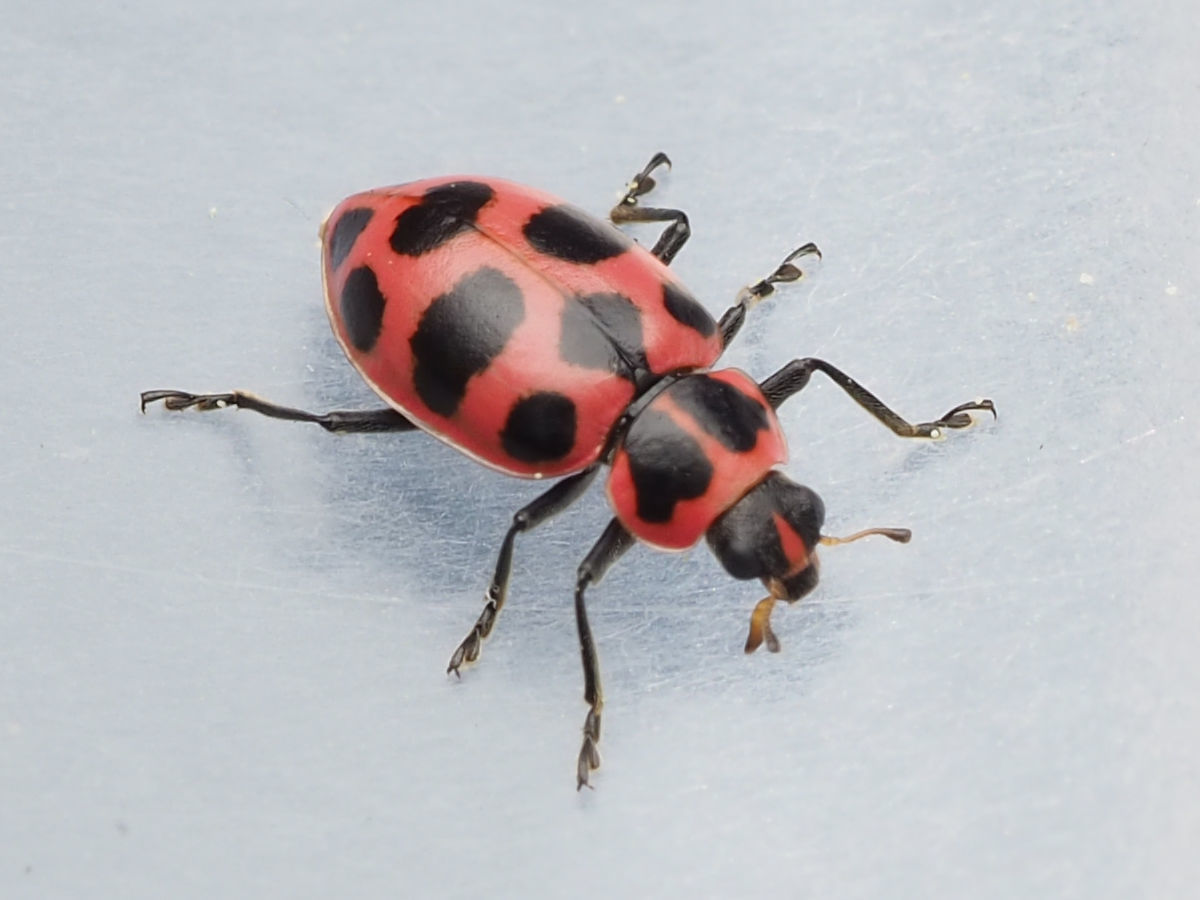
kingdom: Animalia
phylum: Arthropoda
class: Insecta
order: Coleoptera
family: Coccinellidae
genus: Coleomegilla
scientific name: Coleomegilla maculata
